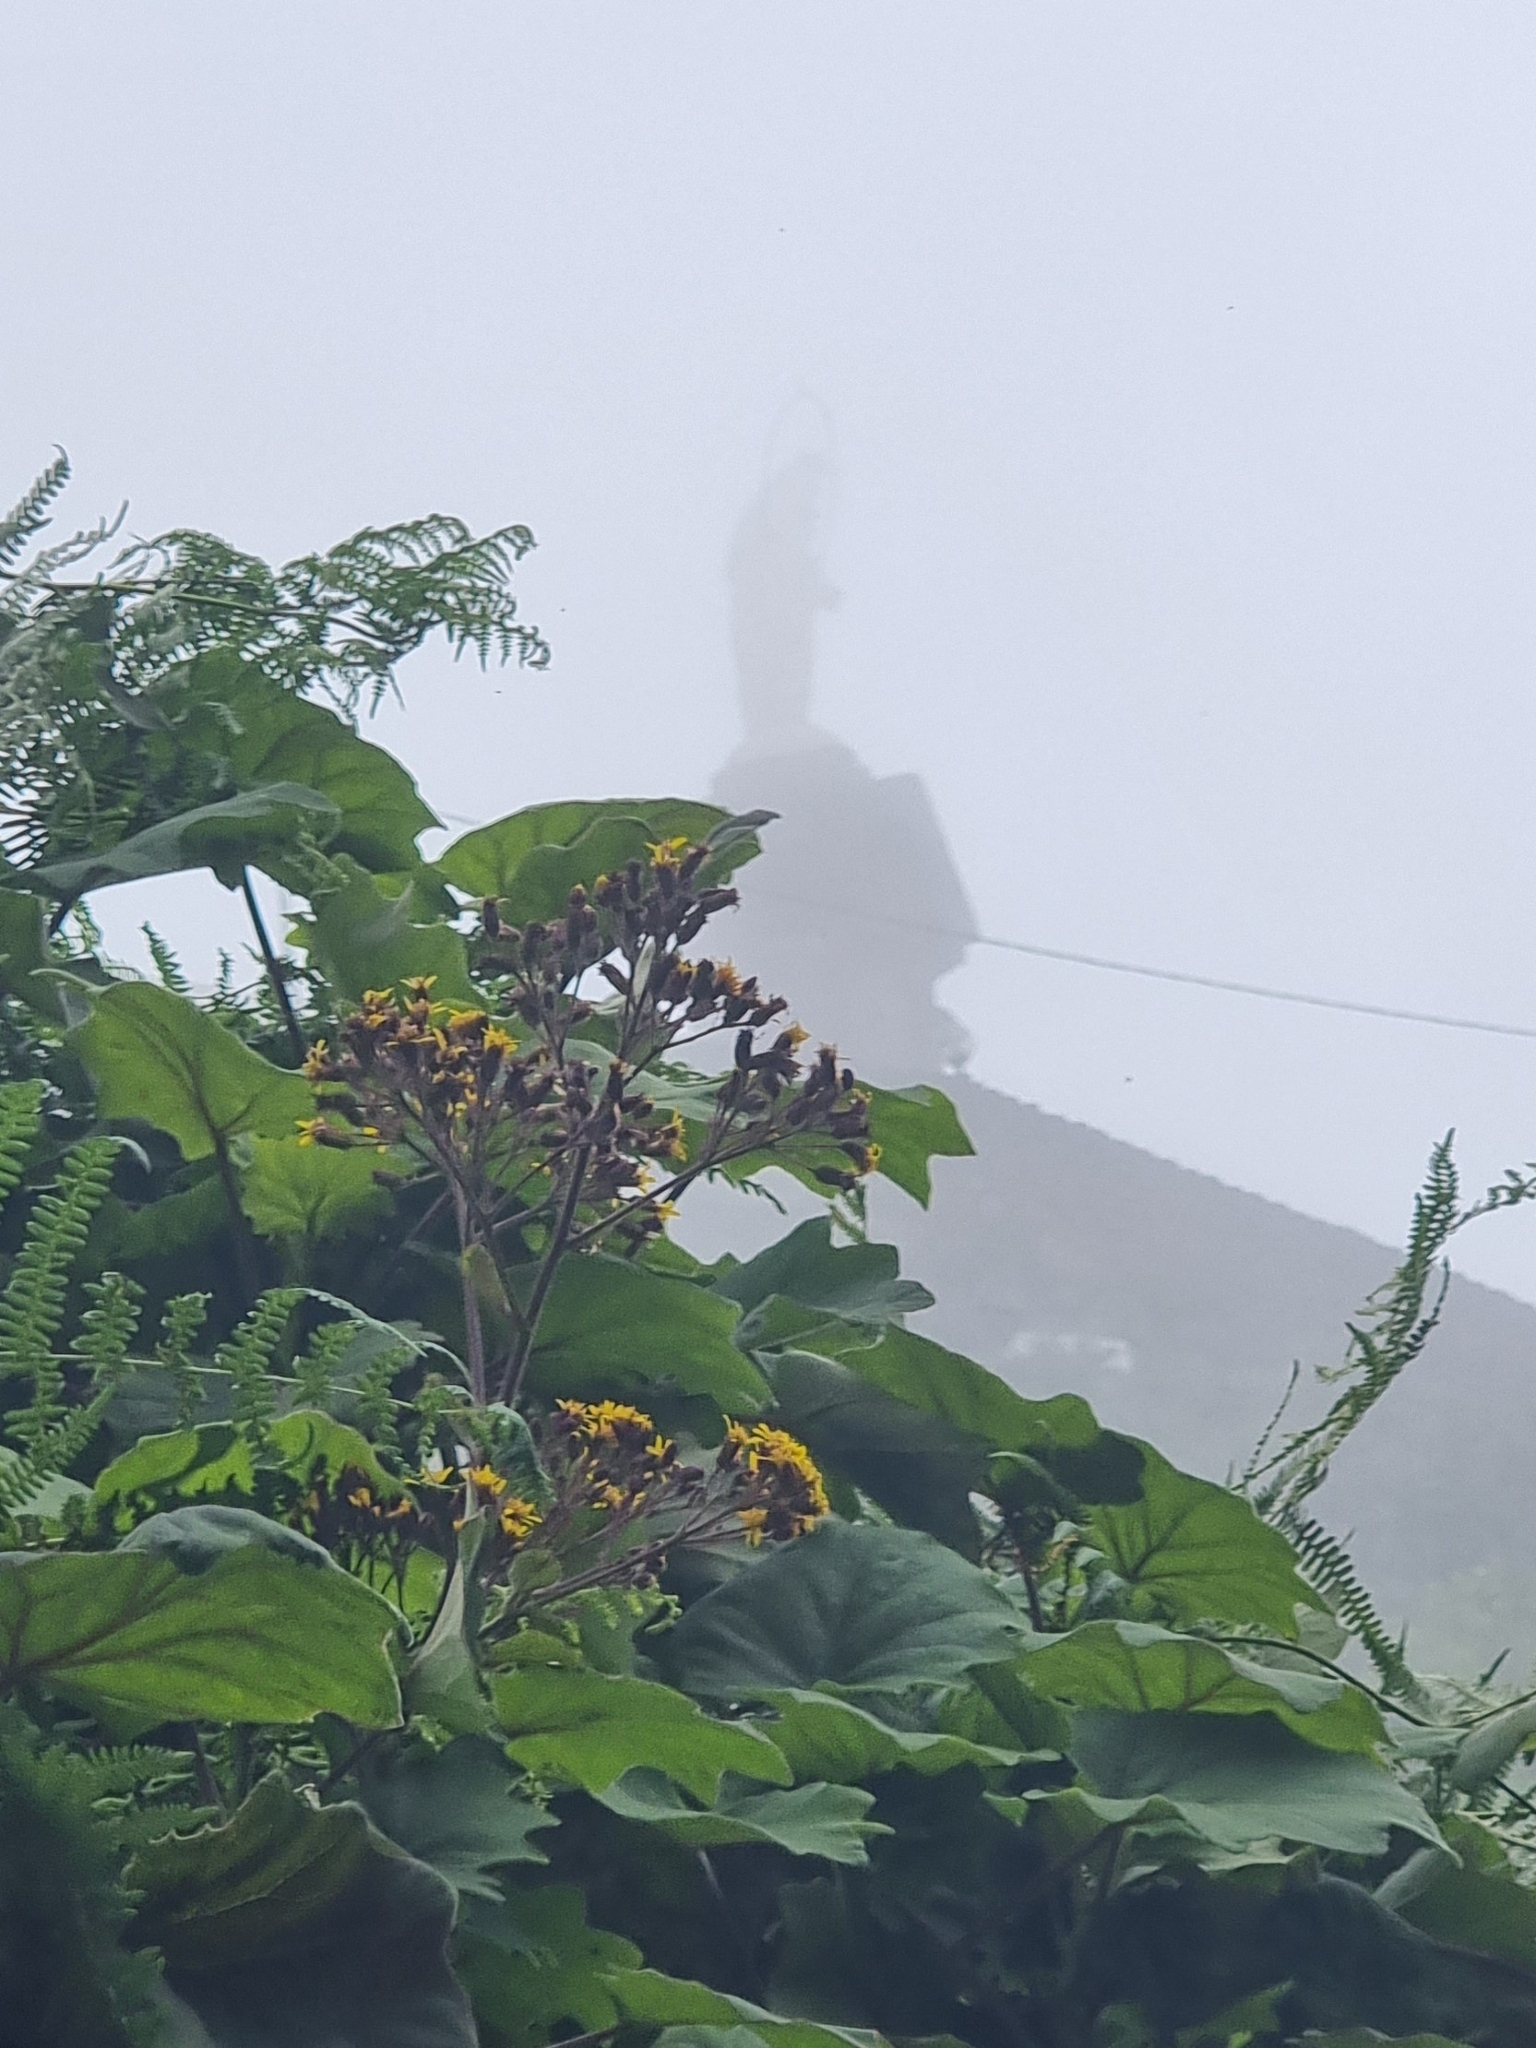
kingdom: Plantae
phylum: Tracheophyta
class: Magnoliopsida
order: Asterales
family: Asteraceae
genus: Roldana
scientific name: Roldana petasitis
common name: California-geranium
